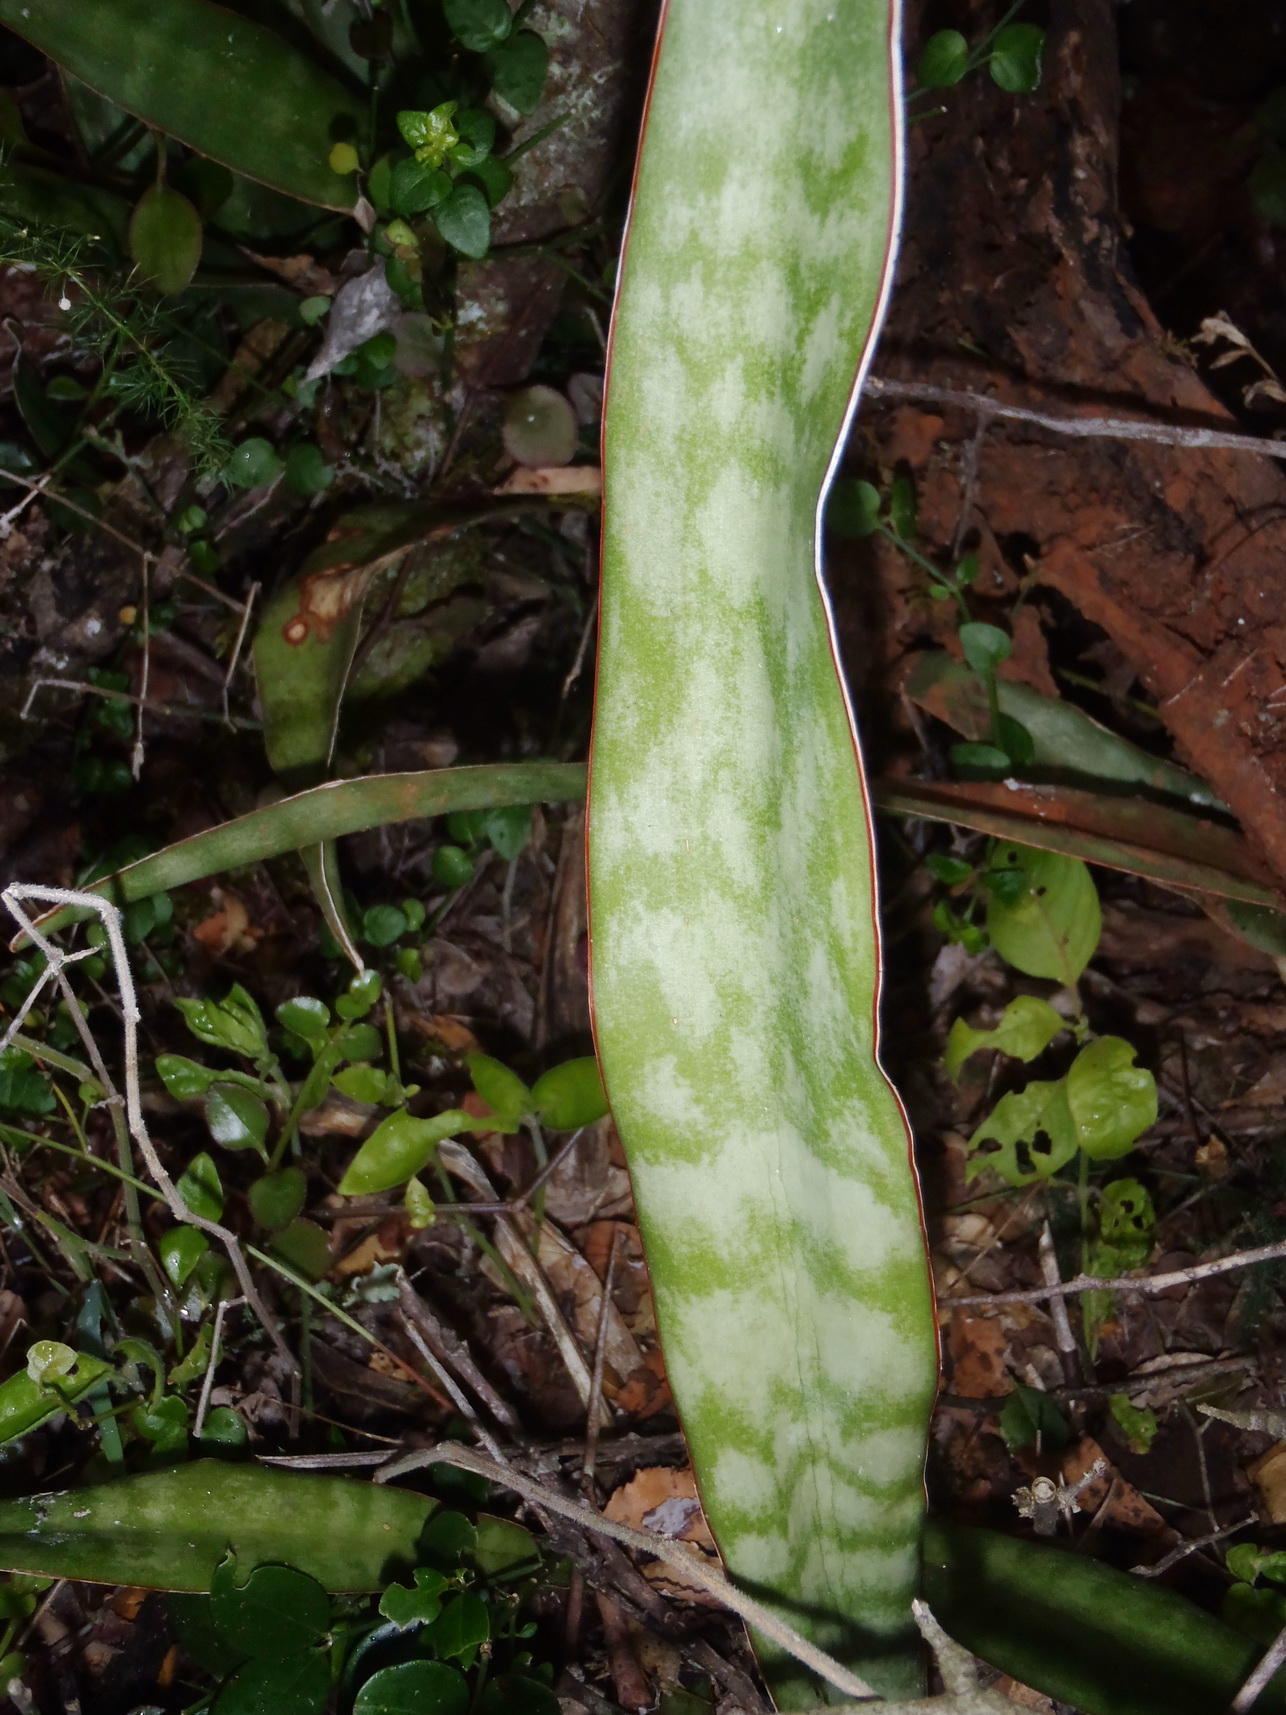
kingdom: Plantae
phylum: Tracheophyta
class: Liliopsida
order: Asparagales
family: Asparagaceae
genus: Dracaena
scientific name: Dracaena hyacinthoides
